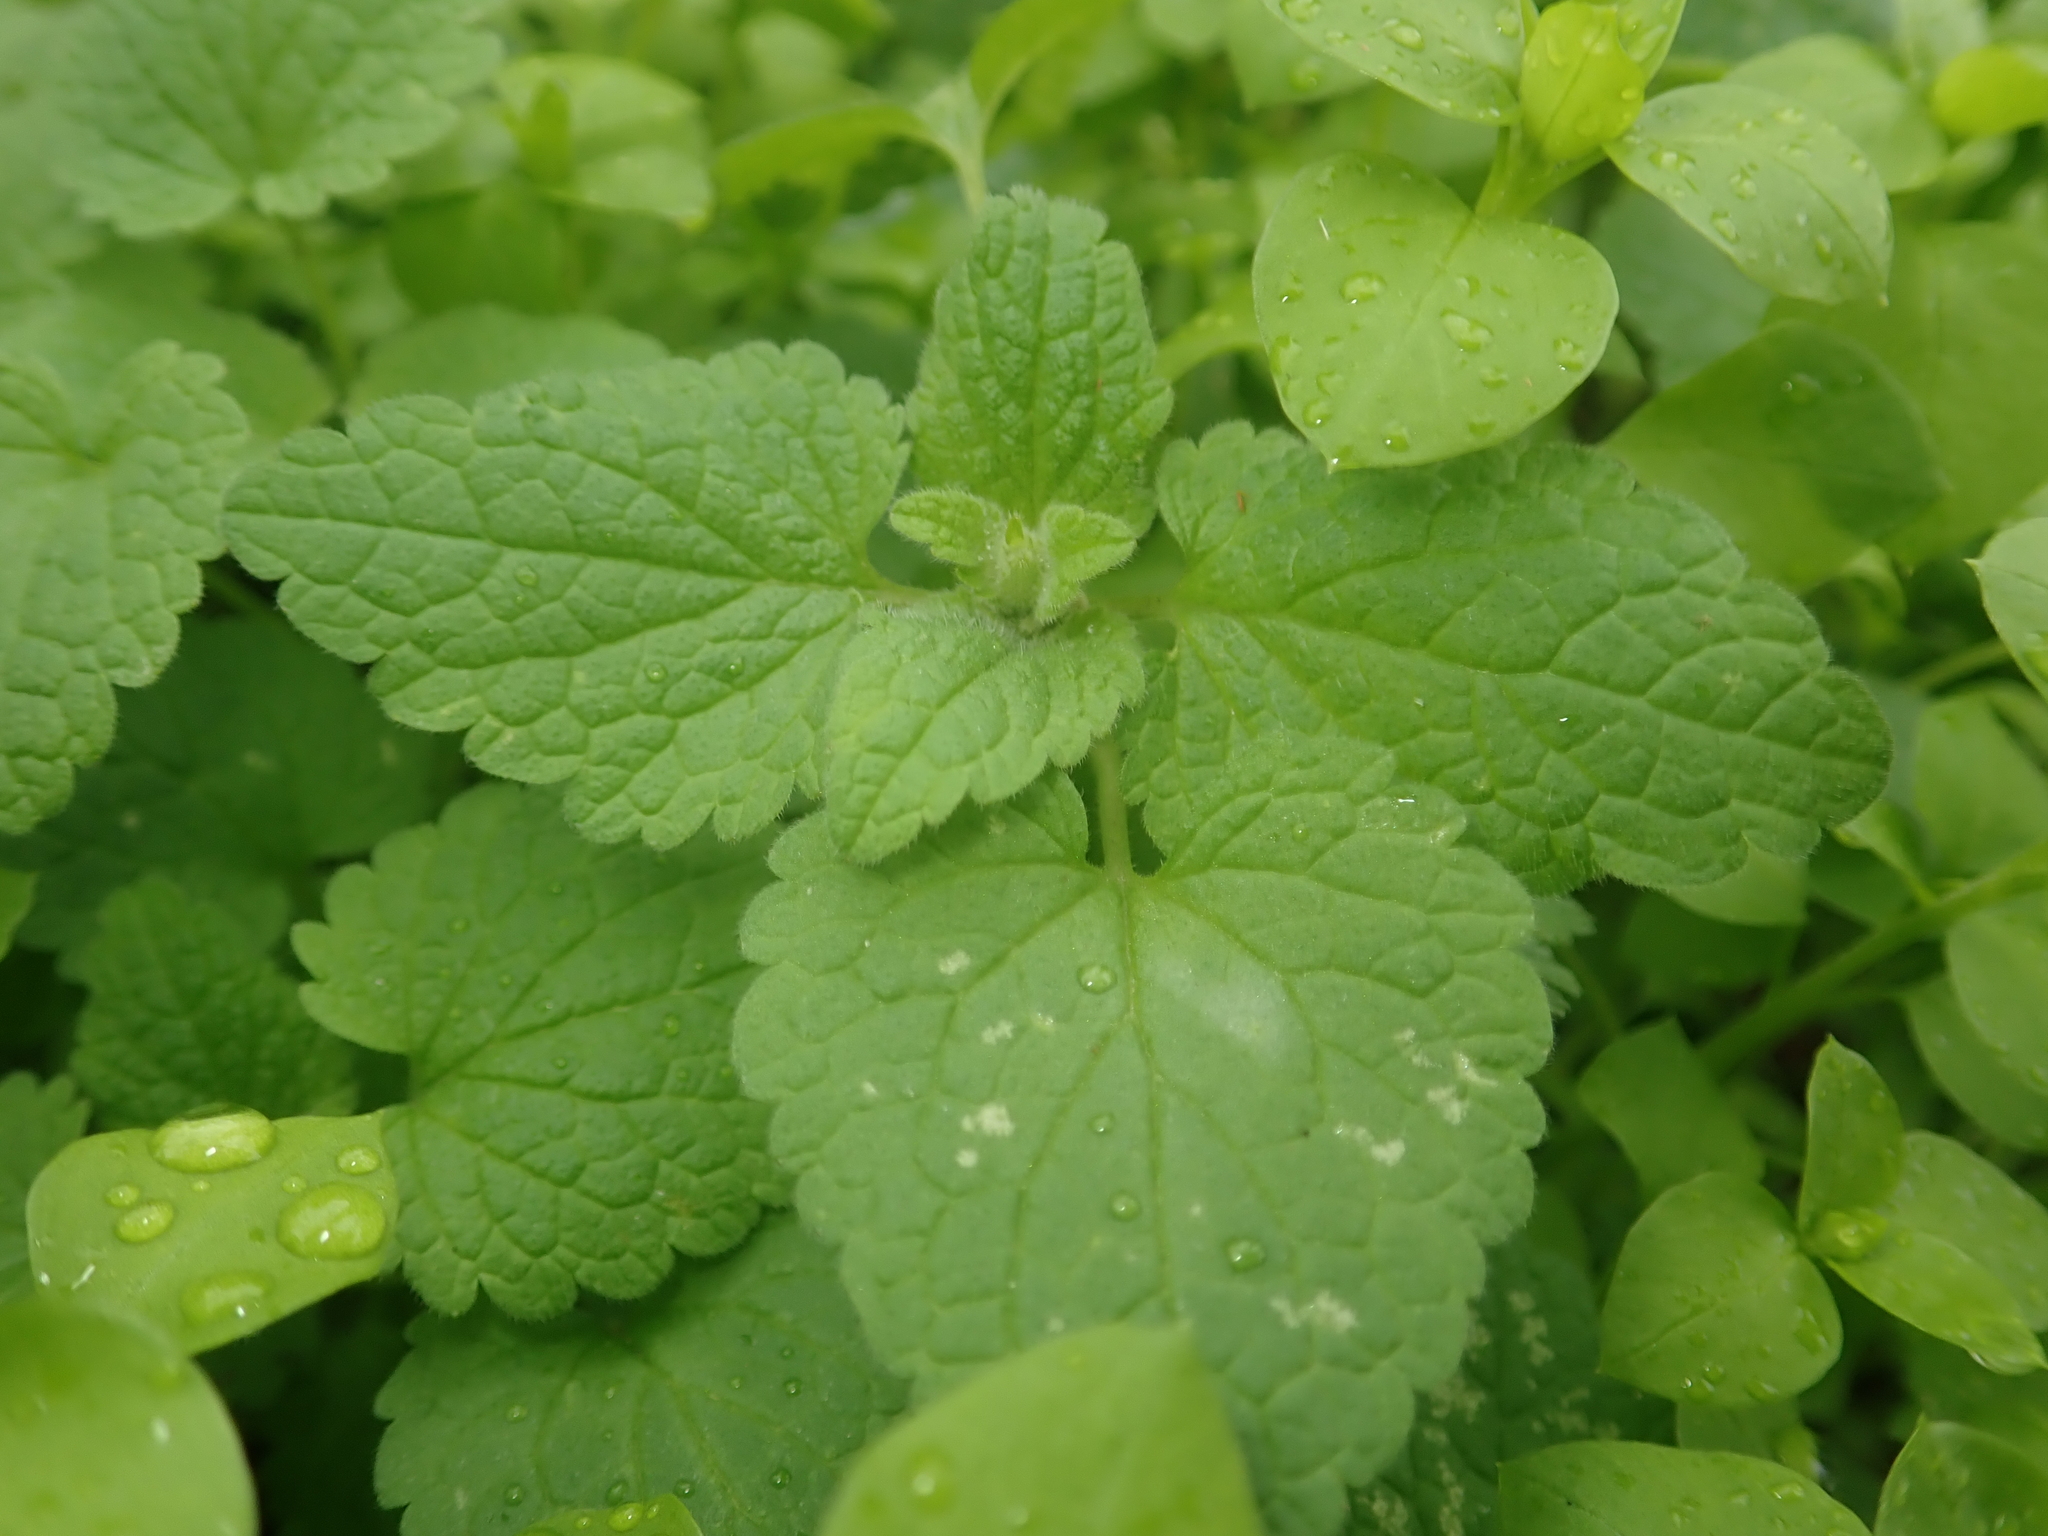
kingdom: Plantae
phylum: Tracheophyta
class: Magnoliopsida
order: Lamiales
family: Lamiaceae
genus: Lamium
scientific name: Lamium purpureum
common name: Red dead-nettle
